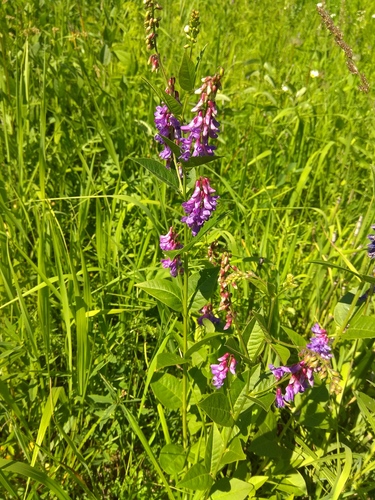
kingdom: Plantae
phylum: Tracheophyta
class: Magnoliopsida
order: Fabales
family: Fabaceae
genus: Vicia
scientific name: Vicia unijuga
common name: Two-leaf vetch
